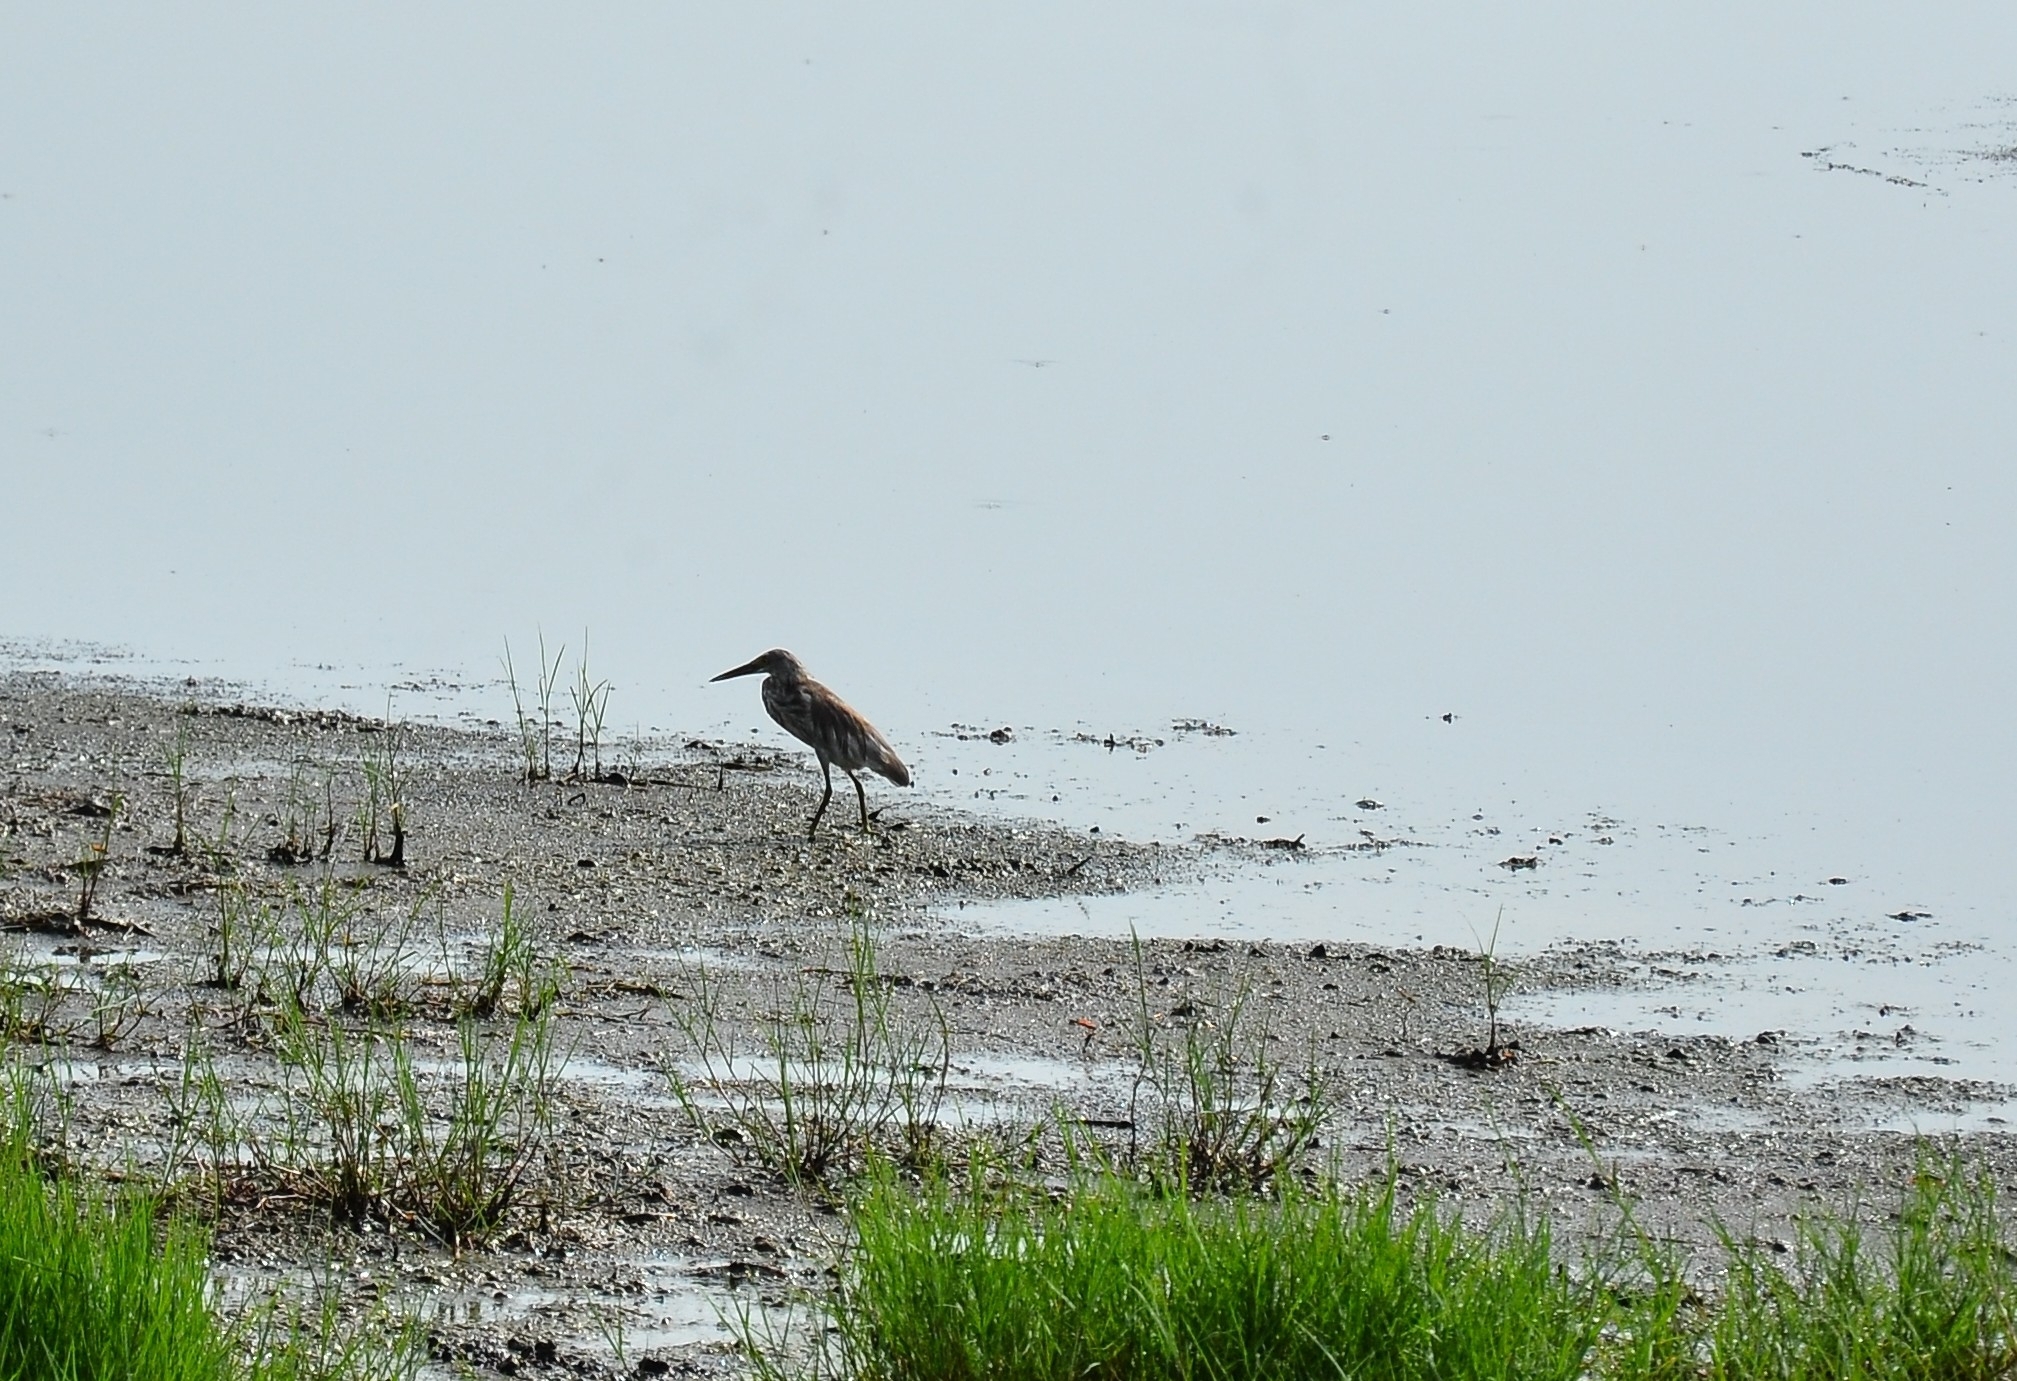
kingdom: Animalia
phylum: Chordata
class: Aves
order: Pelecaniformes
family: Ardeidae
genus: Ardeola
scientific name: Ardeola grayii
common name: Indian pond heron
